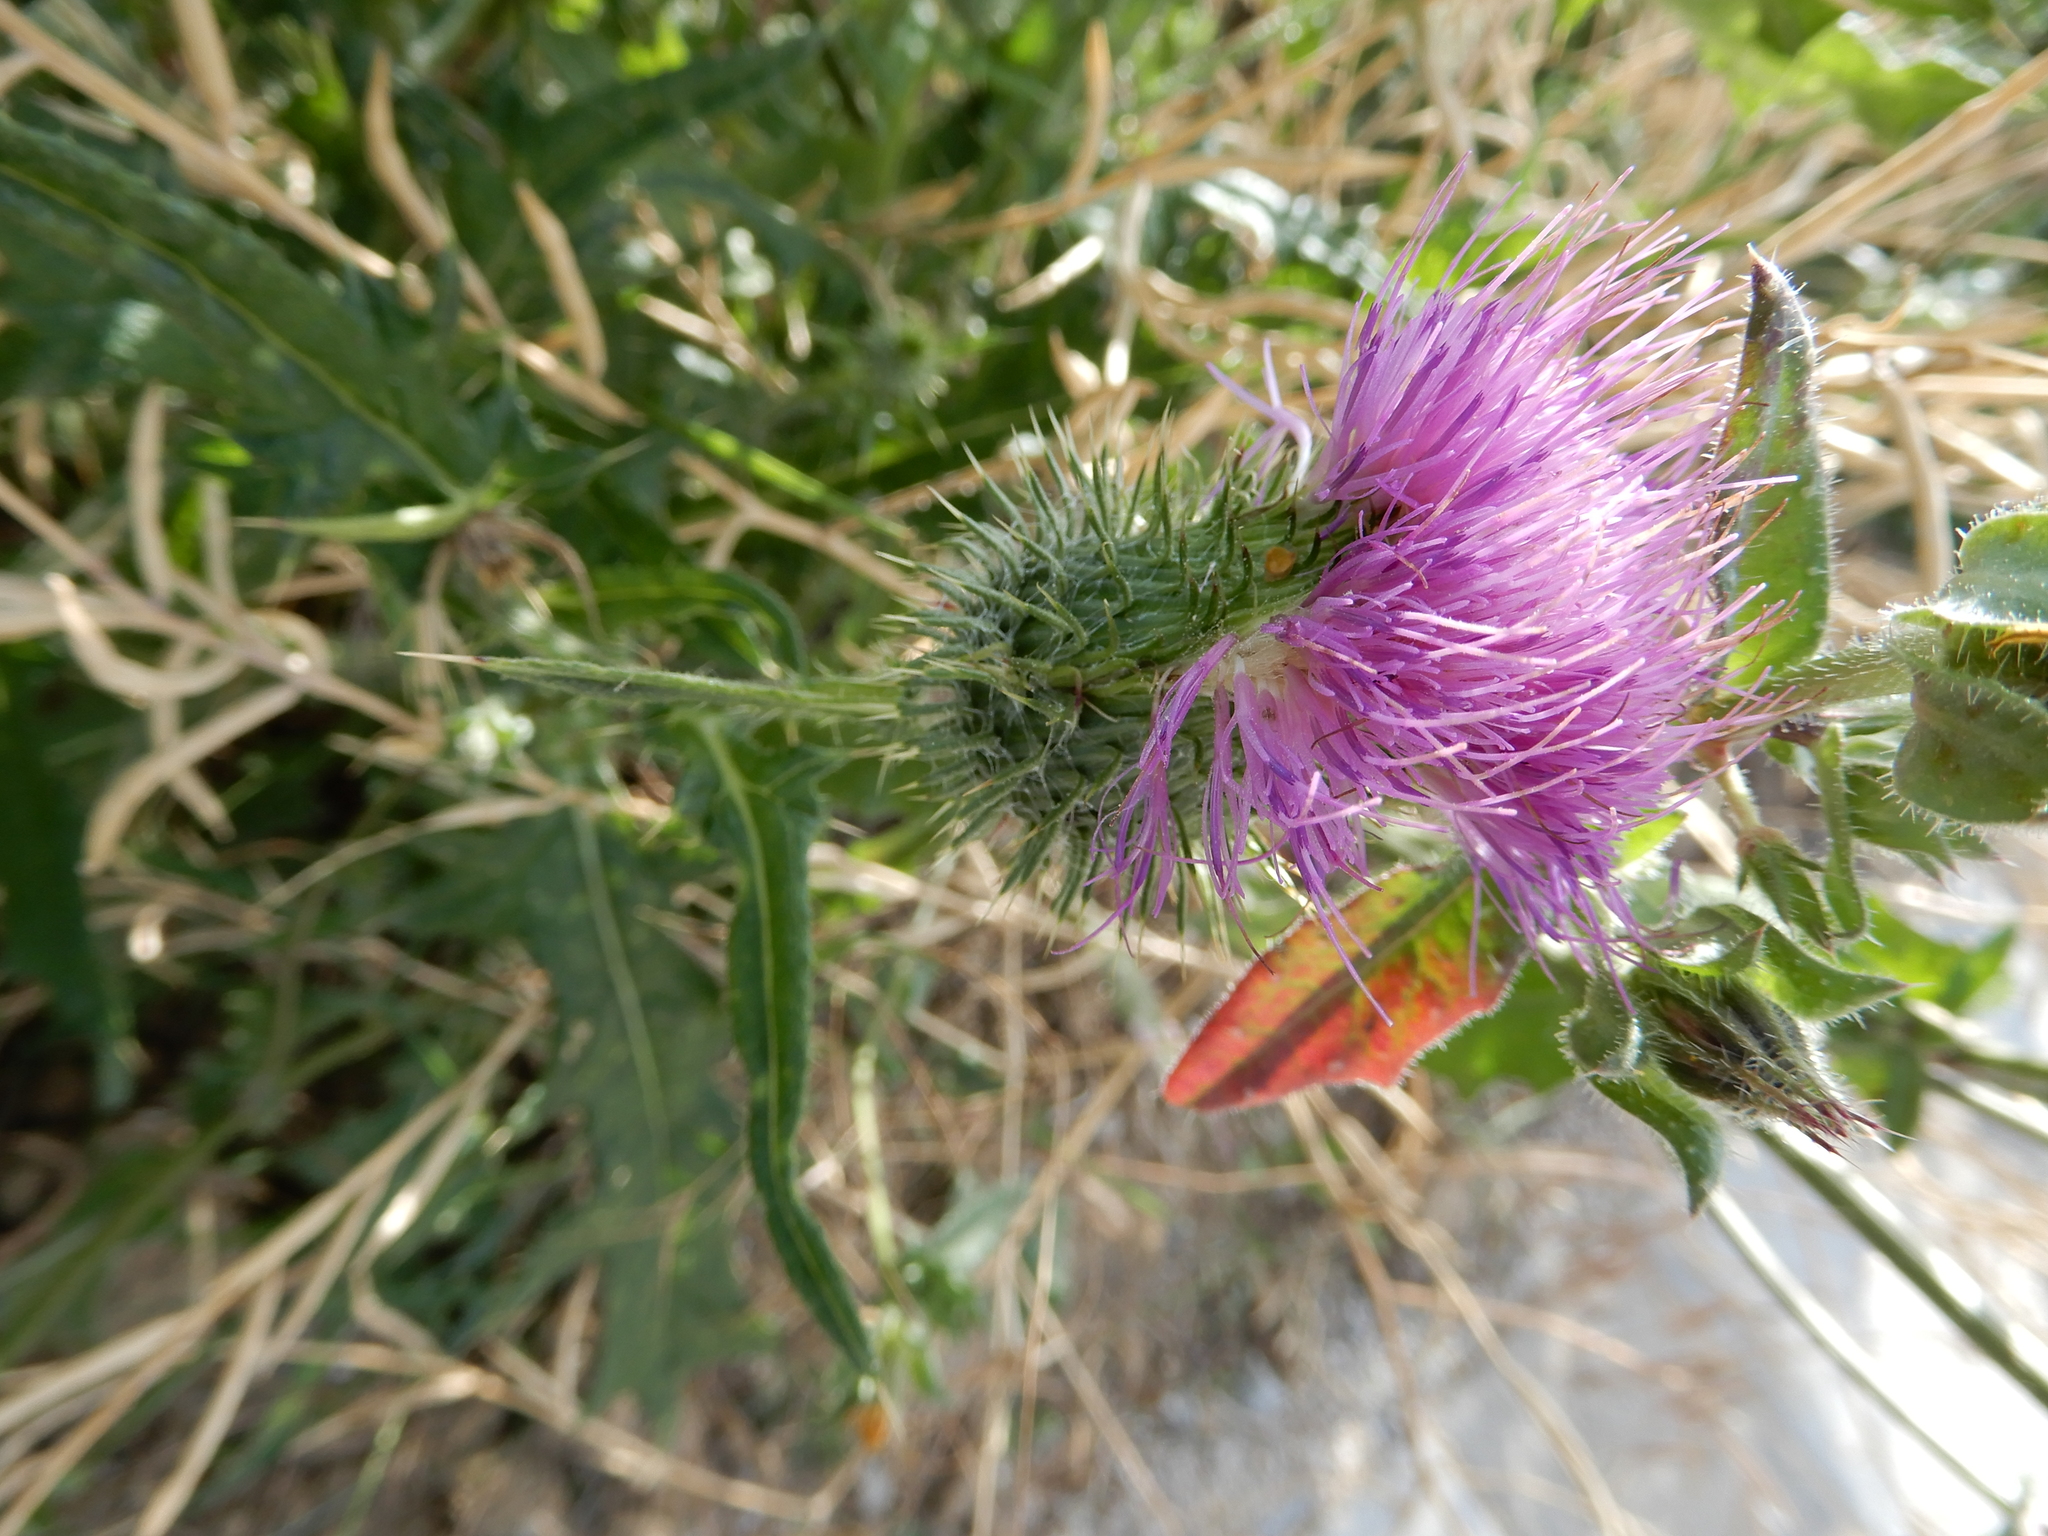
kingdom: Plantae
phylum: Tracheophyta
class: Magnoliopsida
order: Asterales
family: Asteraceae
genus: Cirsium
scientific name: Cirsium vulgare
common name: Bull thistle
